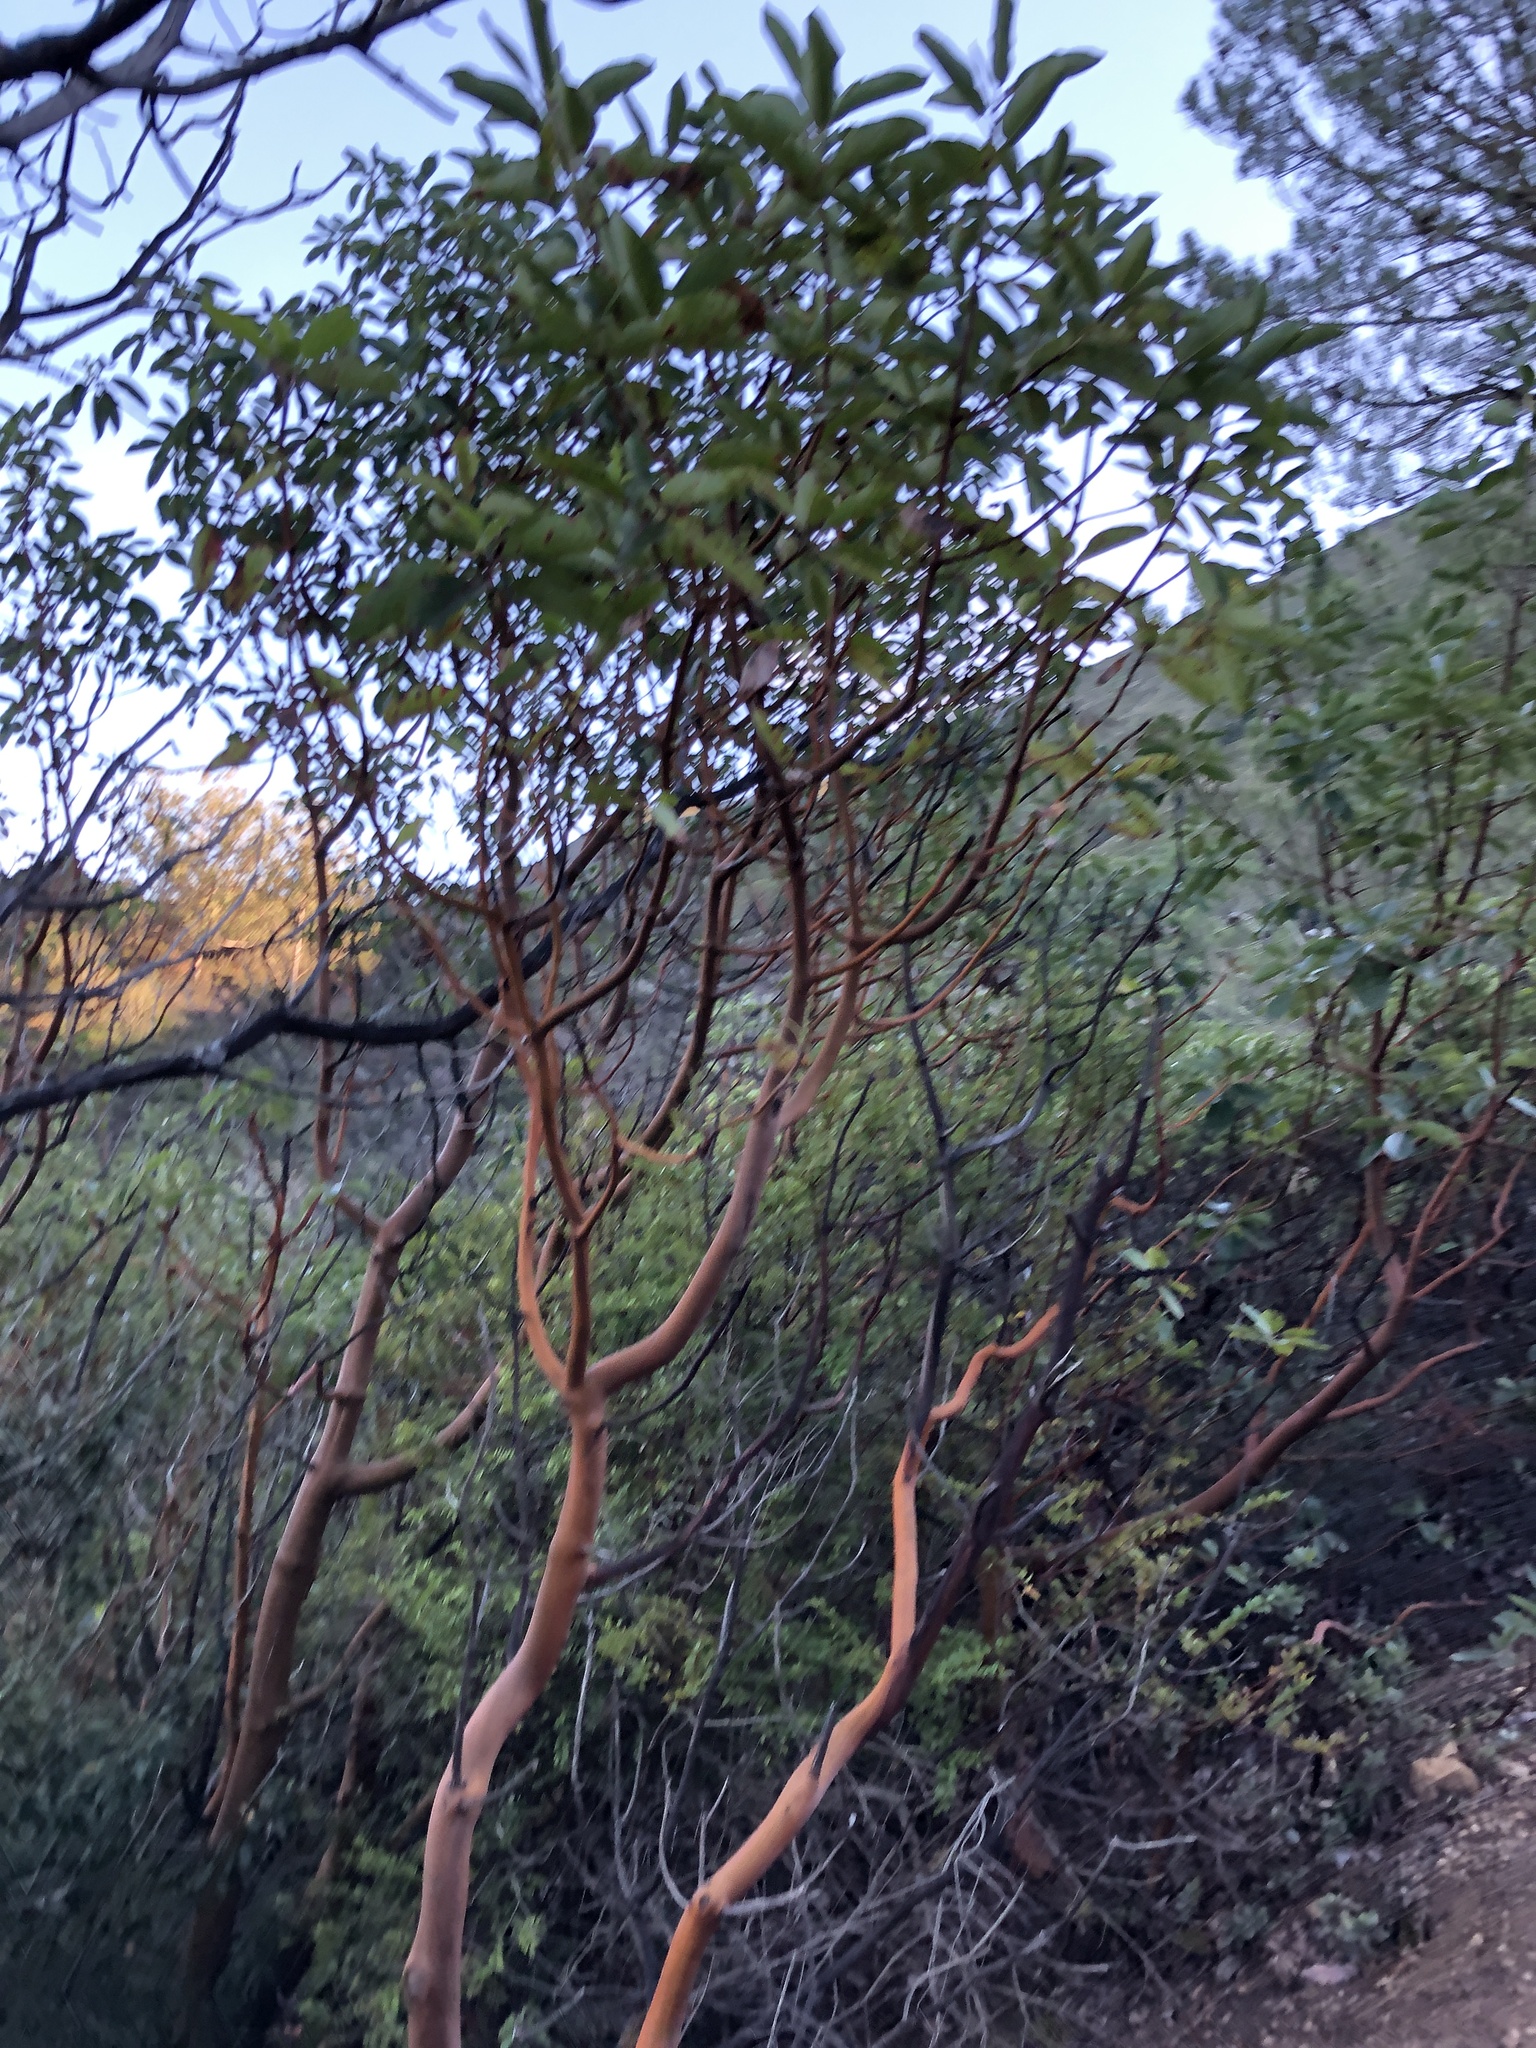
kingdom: Plantae
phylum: Tracheophyta
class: Magnoliopsida
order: Ericales
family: Ericaceae
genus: Arbutus
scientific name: Arbutus menziesii
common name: Pacific madrone
